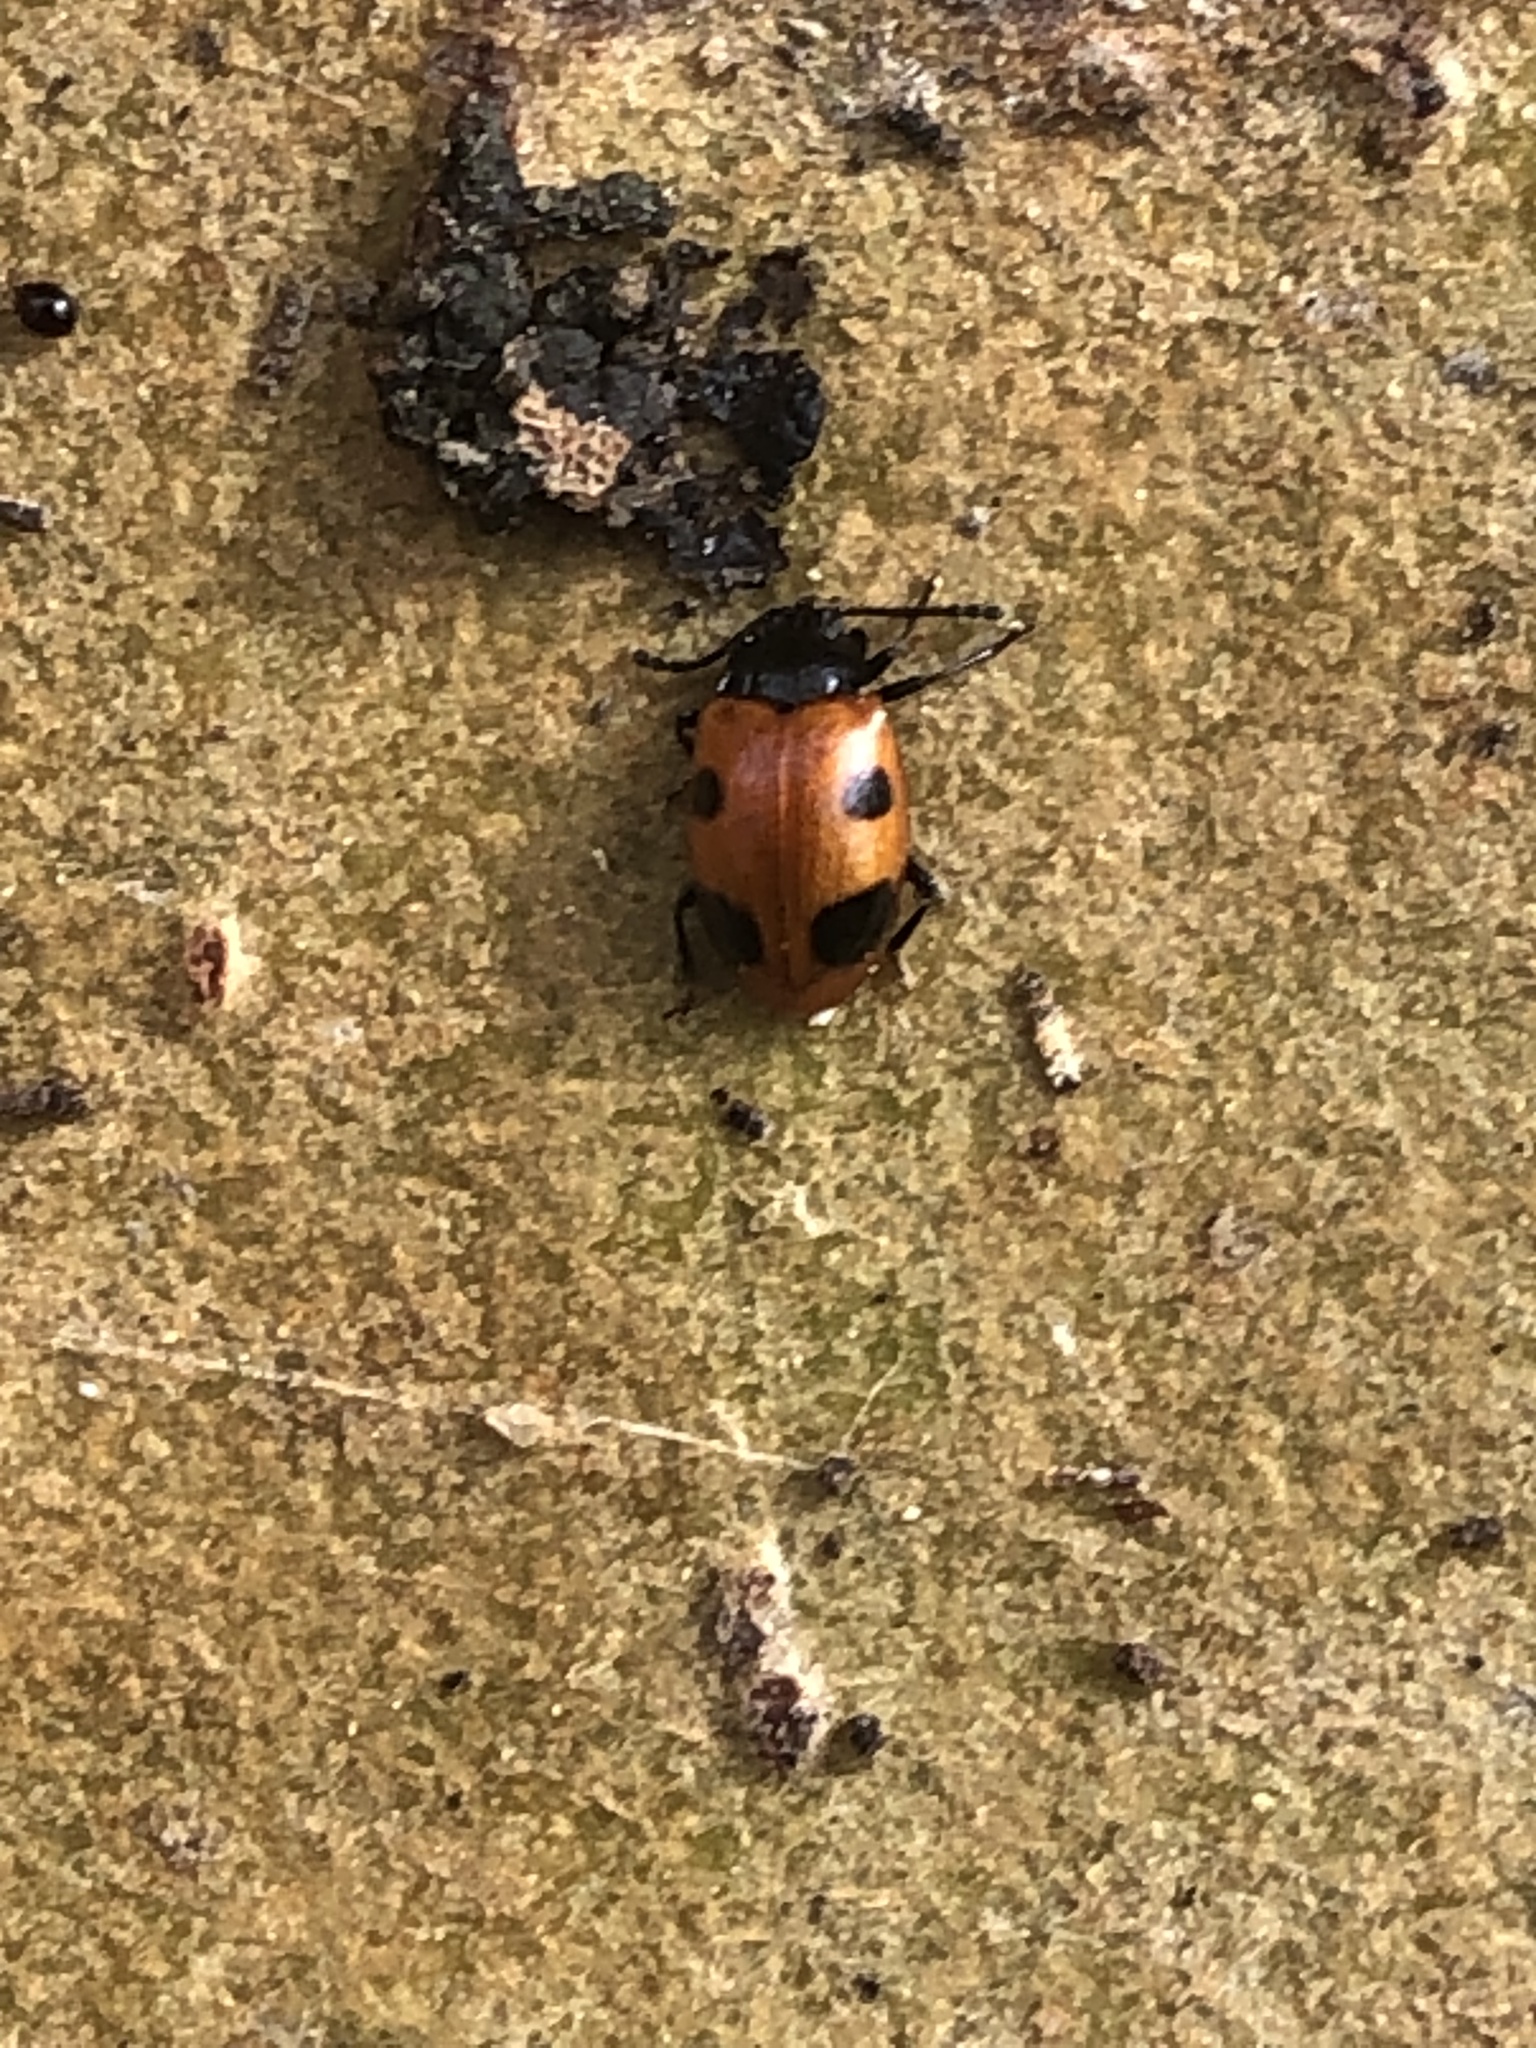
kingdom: Animalia
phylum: Arthropoda
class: Insecta
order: Coleoptera
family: Endomychidae
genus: Endomychus
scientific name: Endomychus biguttatus
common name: Handsome fungus beetle
